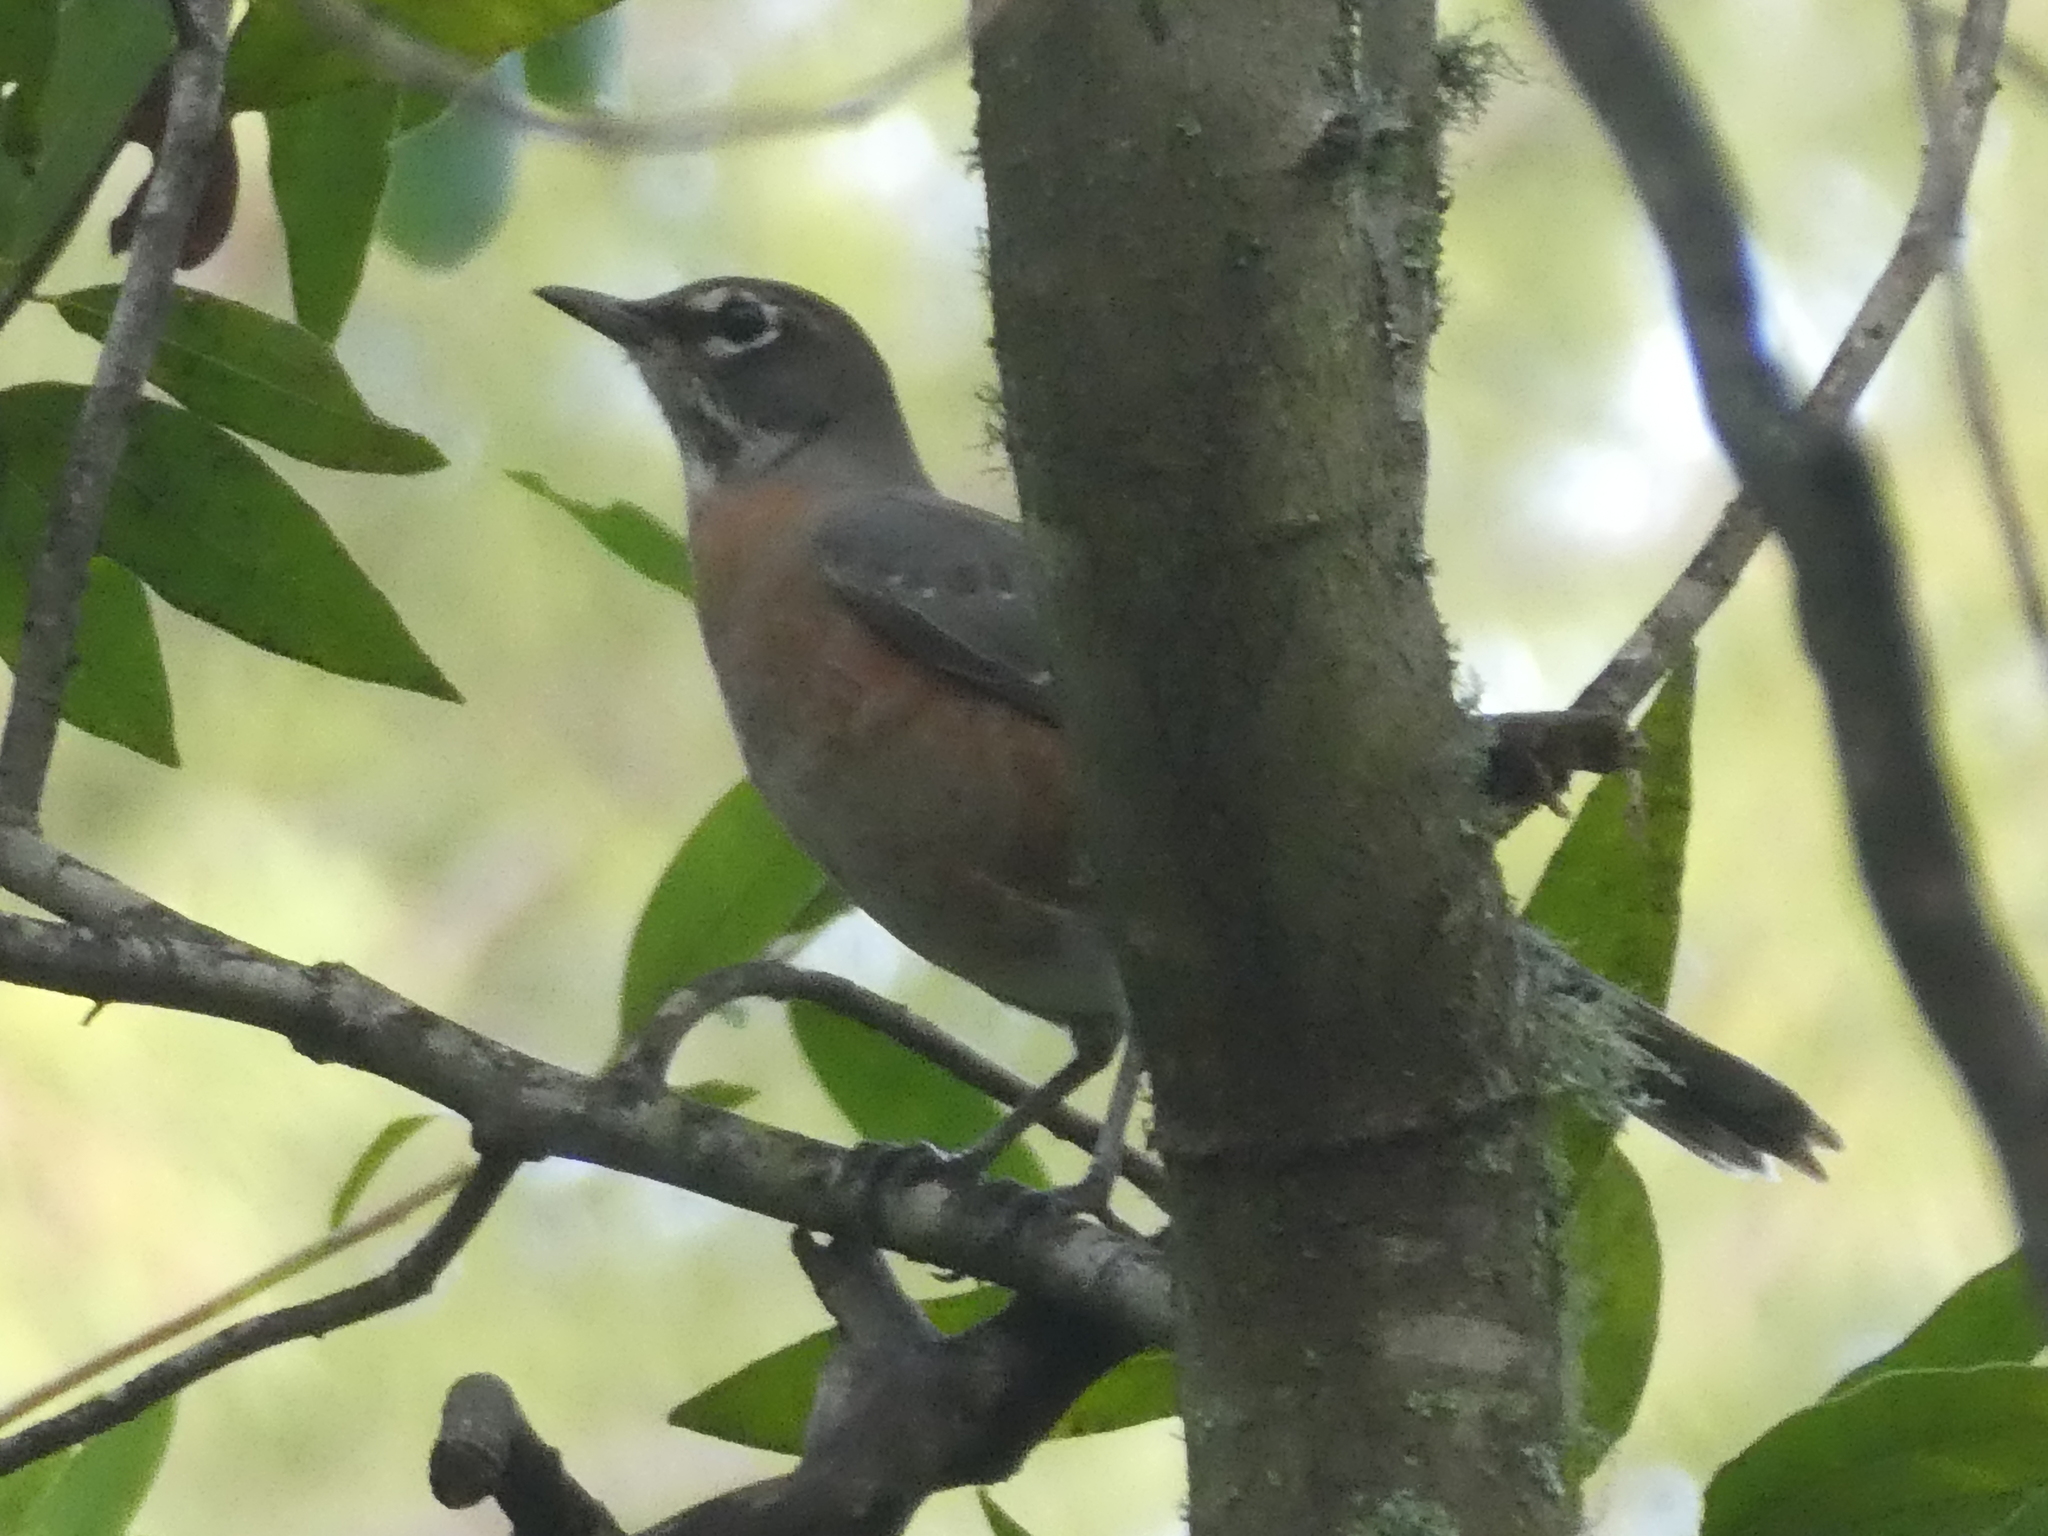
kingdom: Animalia
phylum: Chordata
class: Aves
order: Passeriformes
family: Turdidae
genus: Turdus
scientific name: Turdus migratorius
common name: American robin
